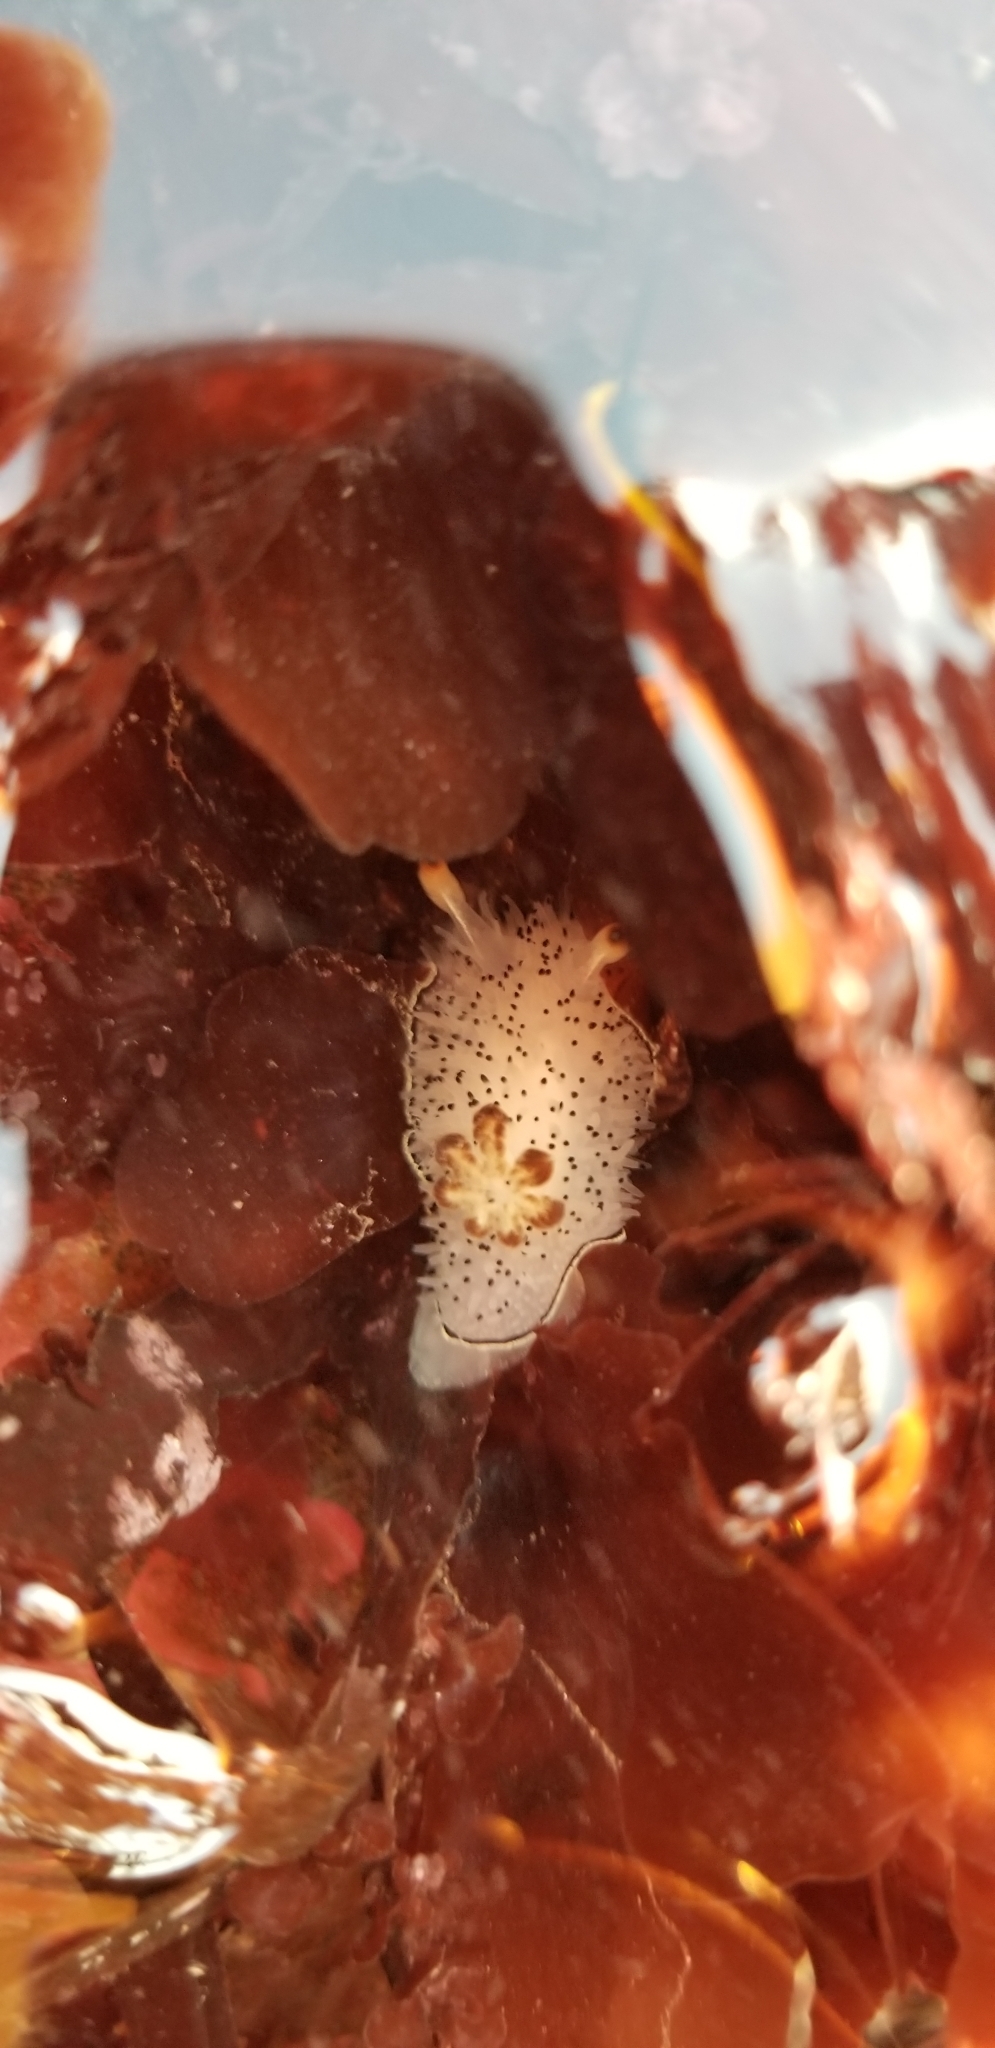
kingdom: Animalia
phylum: Mollusca
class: Gastropoda
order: Nudibranchia
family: Onchidorididae
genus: Acanthodoris
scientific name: Acanthodoris rhodoceras
